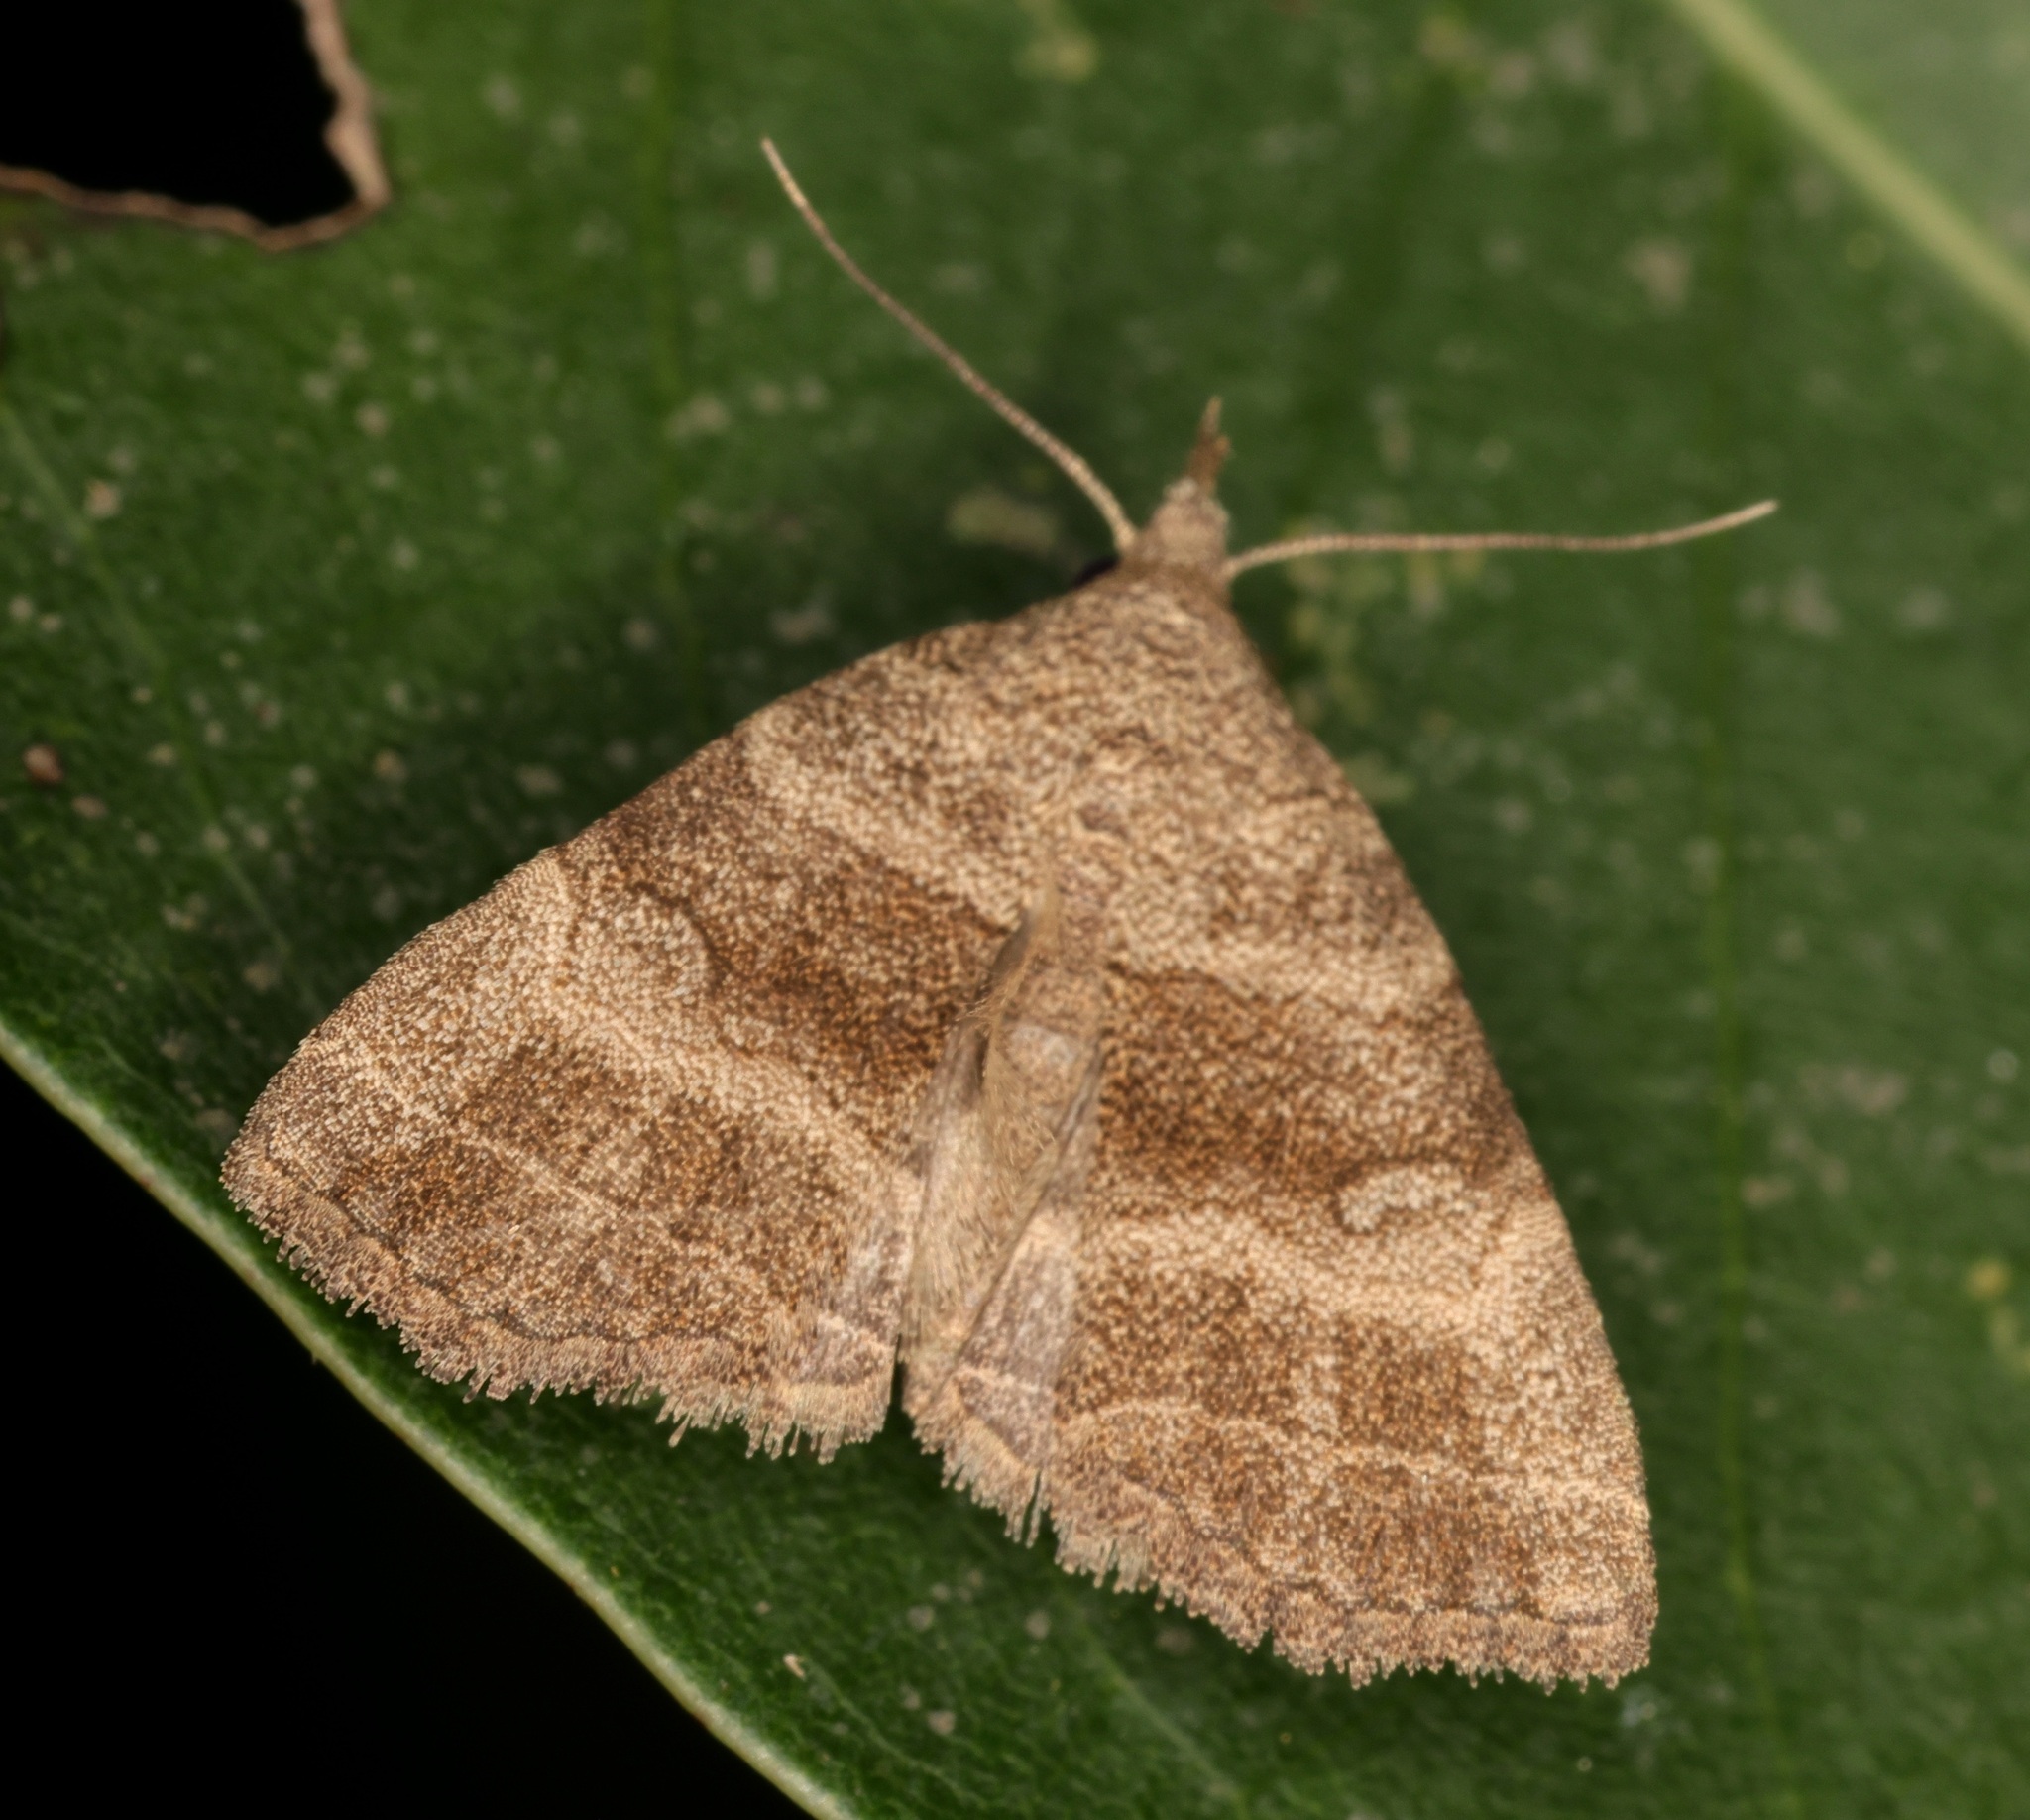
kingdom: Animalia
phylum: Arthropoda
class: Insecta
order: Lepidoptera
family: Erebidae
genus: Herminia
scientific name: Herminia annulata
